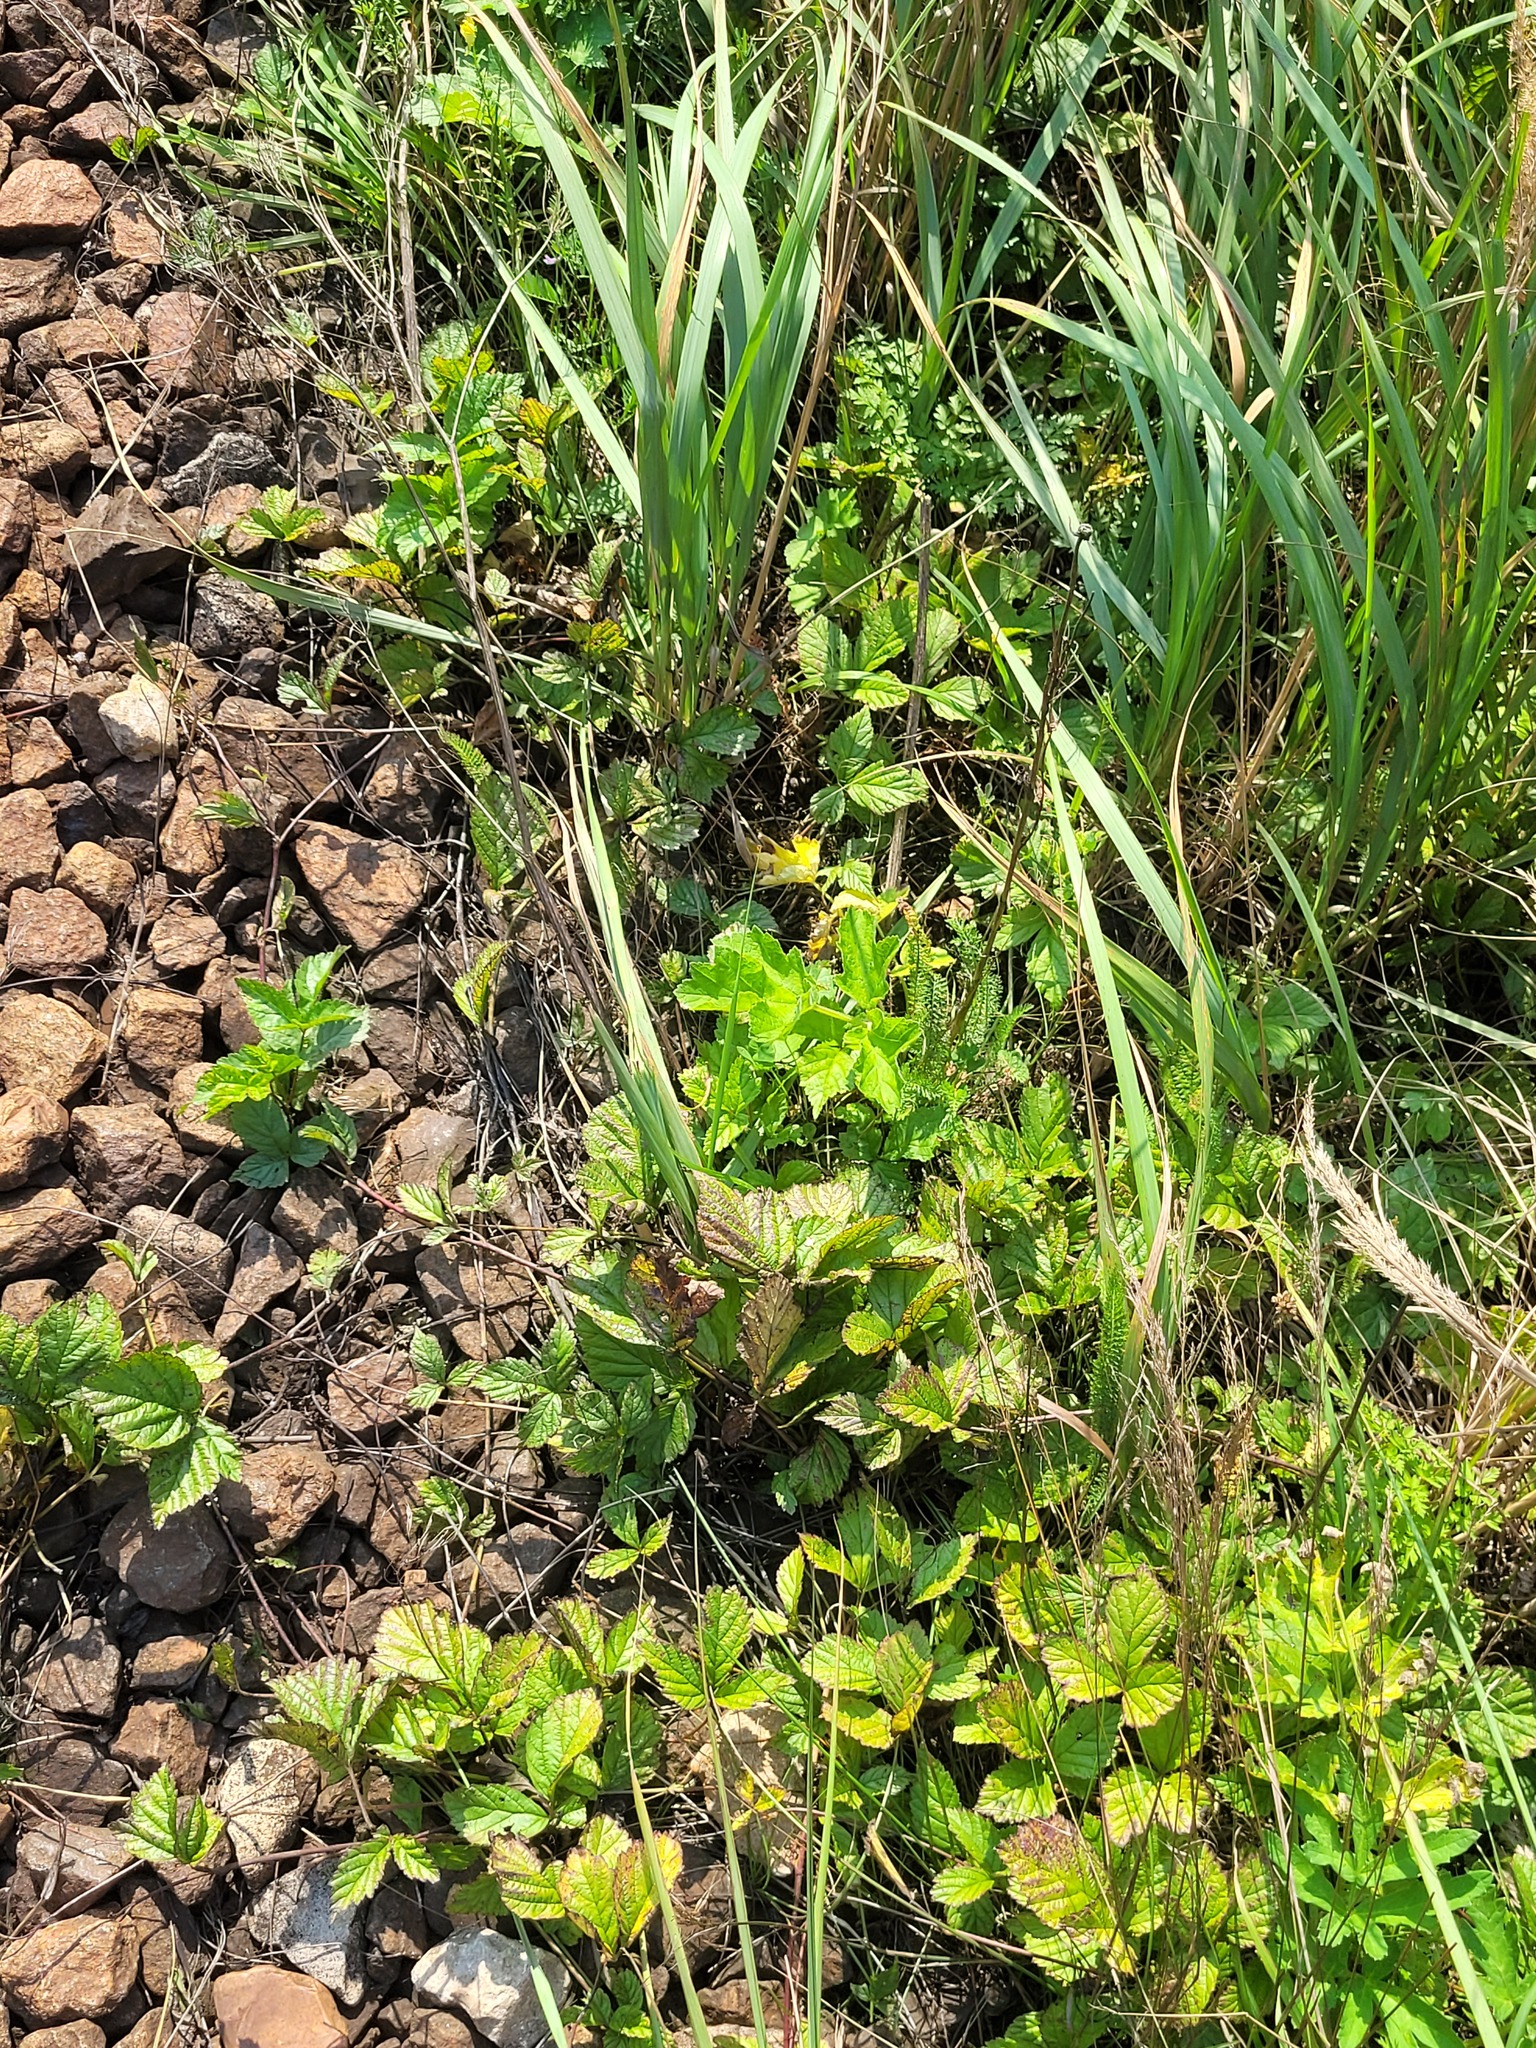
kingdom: Plantae
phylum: Tracheophyta
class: Magnoliopsida
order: Rosales
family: Rosaceae
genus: Rubus
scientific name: Rubus saxatilis
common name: Stone bramble
